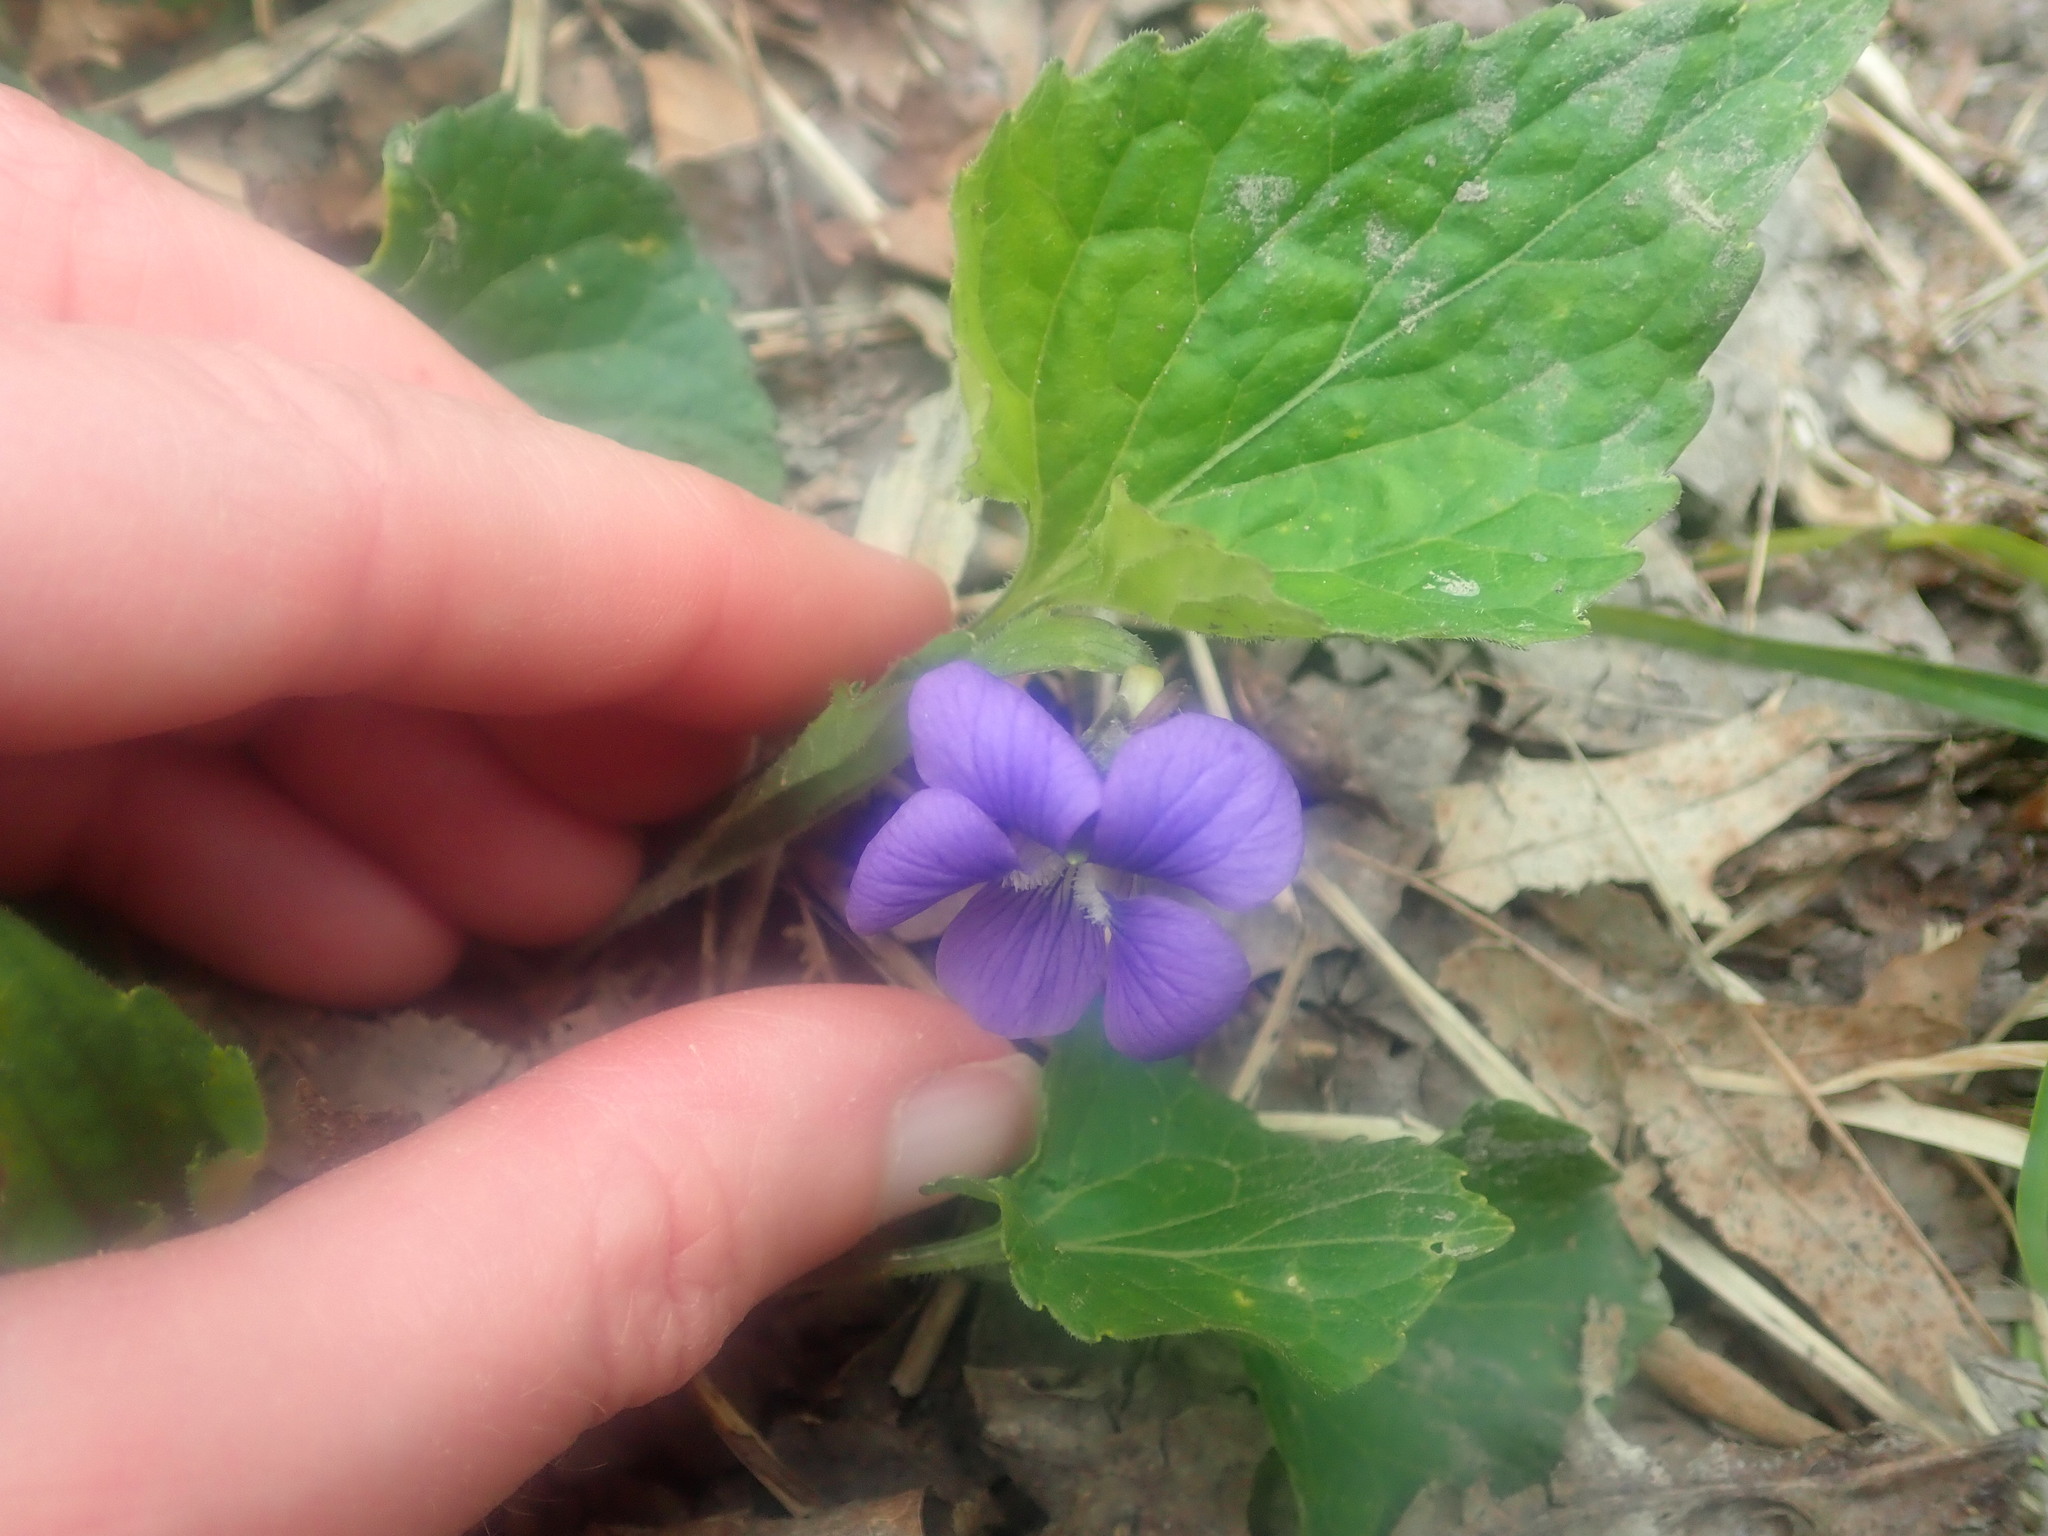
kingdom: Plantae
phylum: Tracheophyta
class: Magnoliopsida
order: Malpighiales
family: Violaceae
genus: Viola
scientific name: Viola sororia
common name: Dooryard violet
